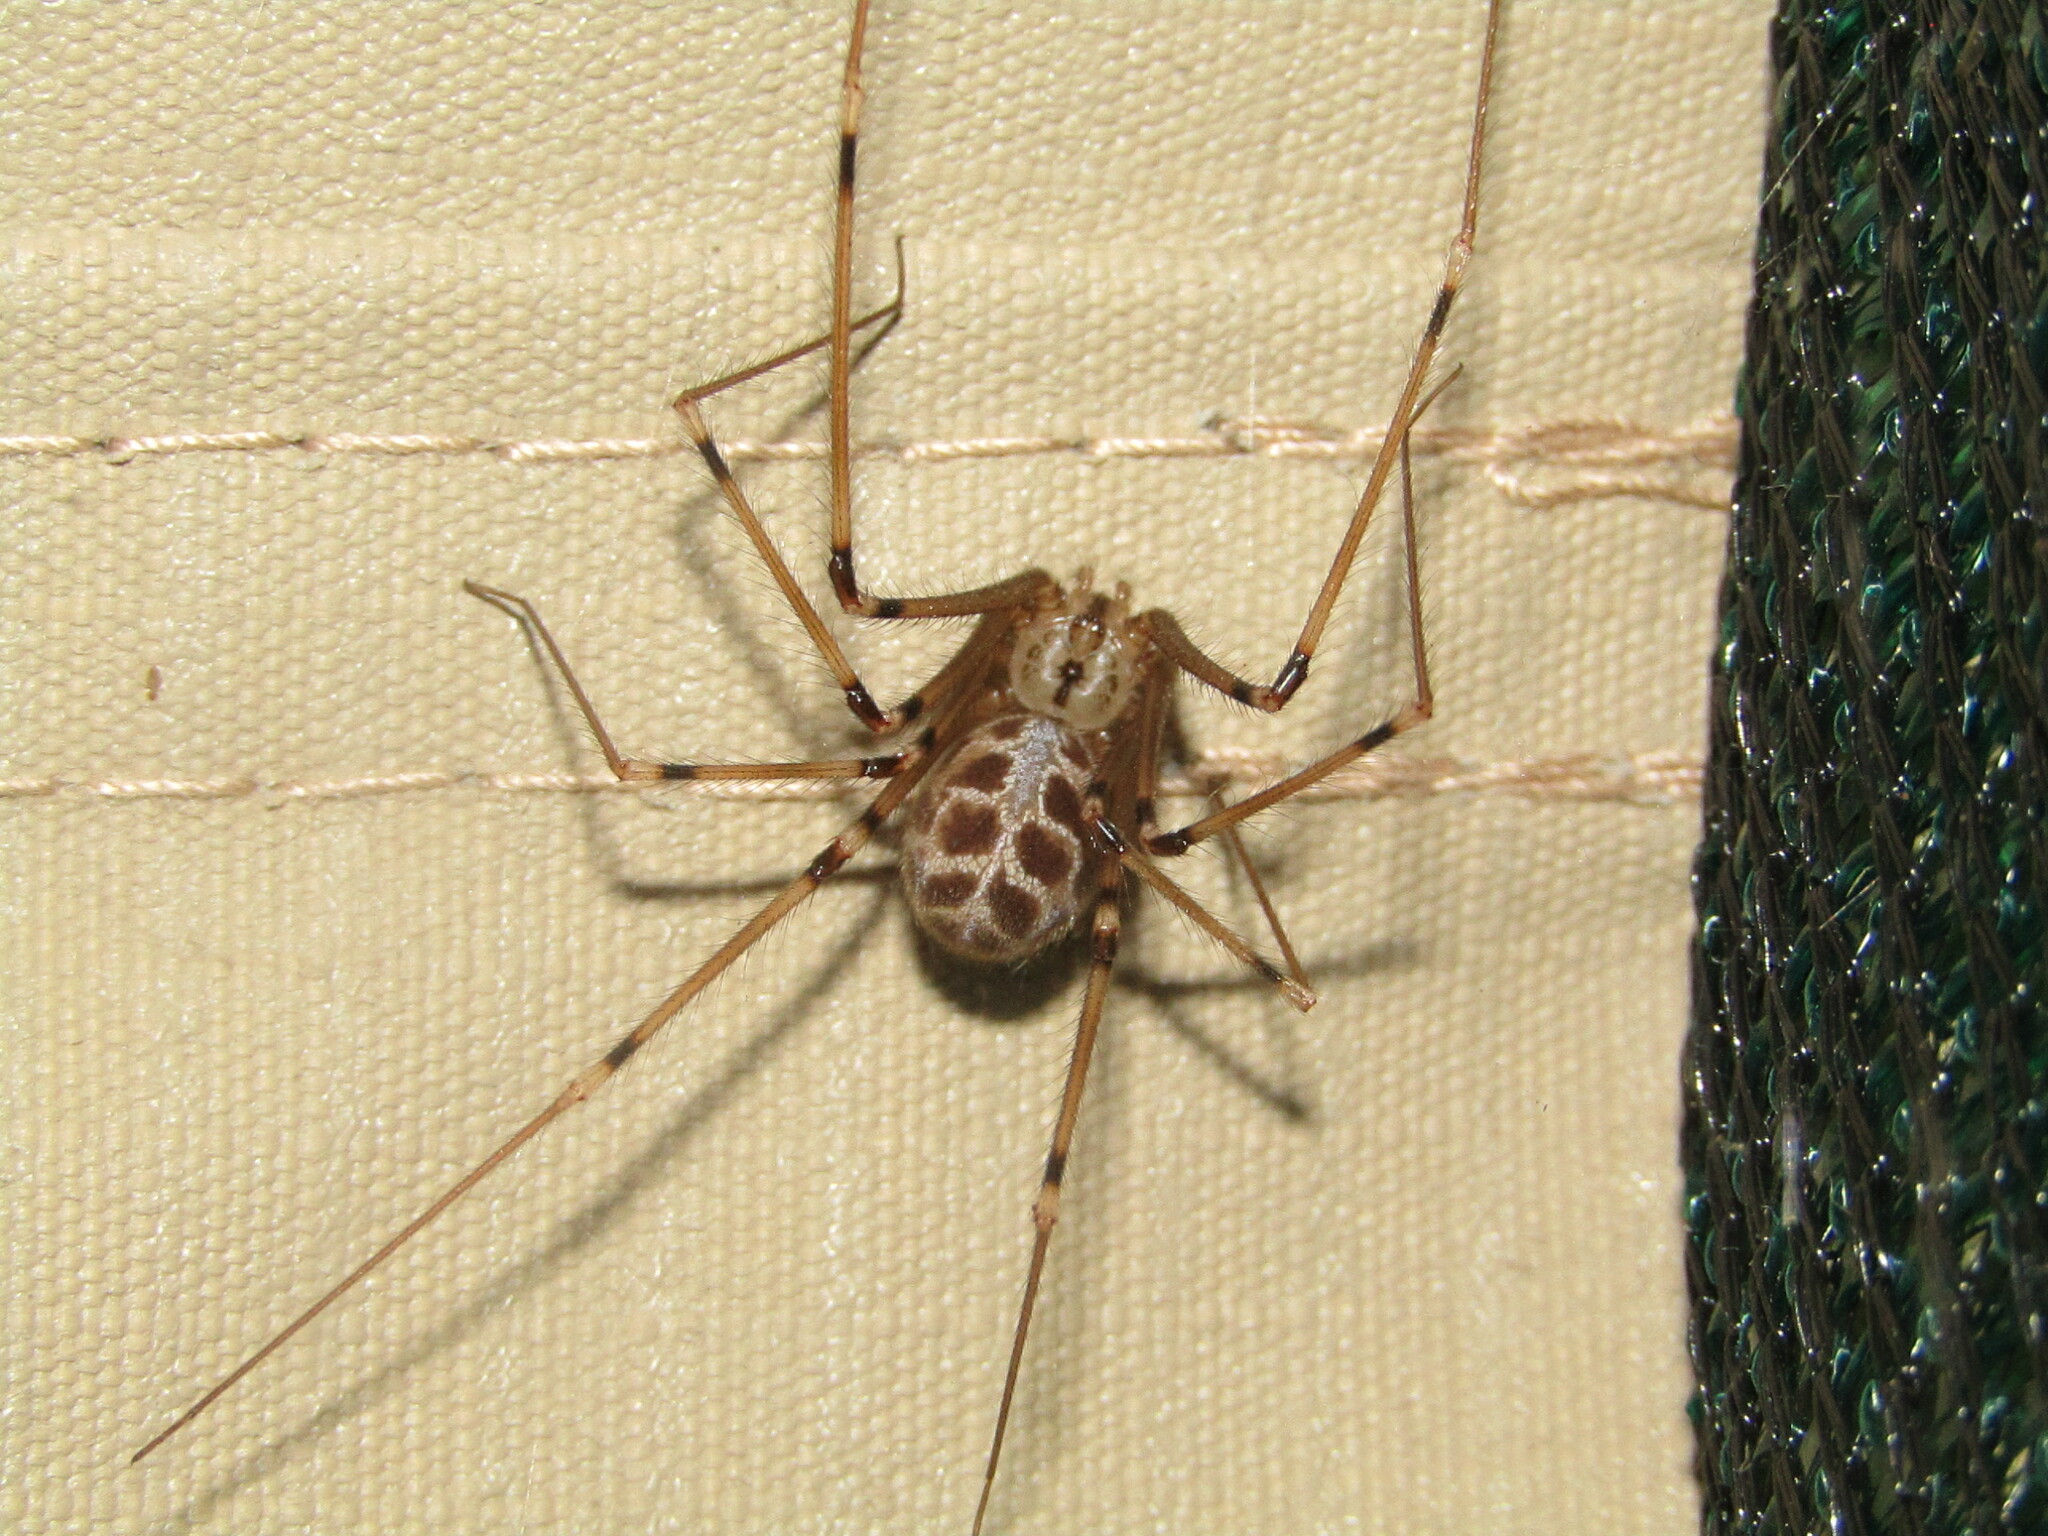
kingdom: Animalia
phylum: Arthropoda
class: Arachnida
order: Araneae
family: Pholcidae
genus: Artema
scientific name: Artema atlanta
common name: Cellar spider
